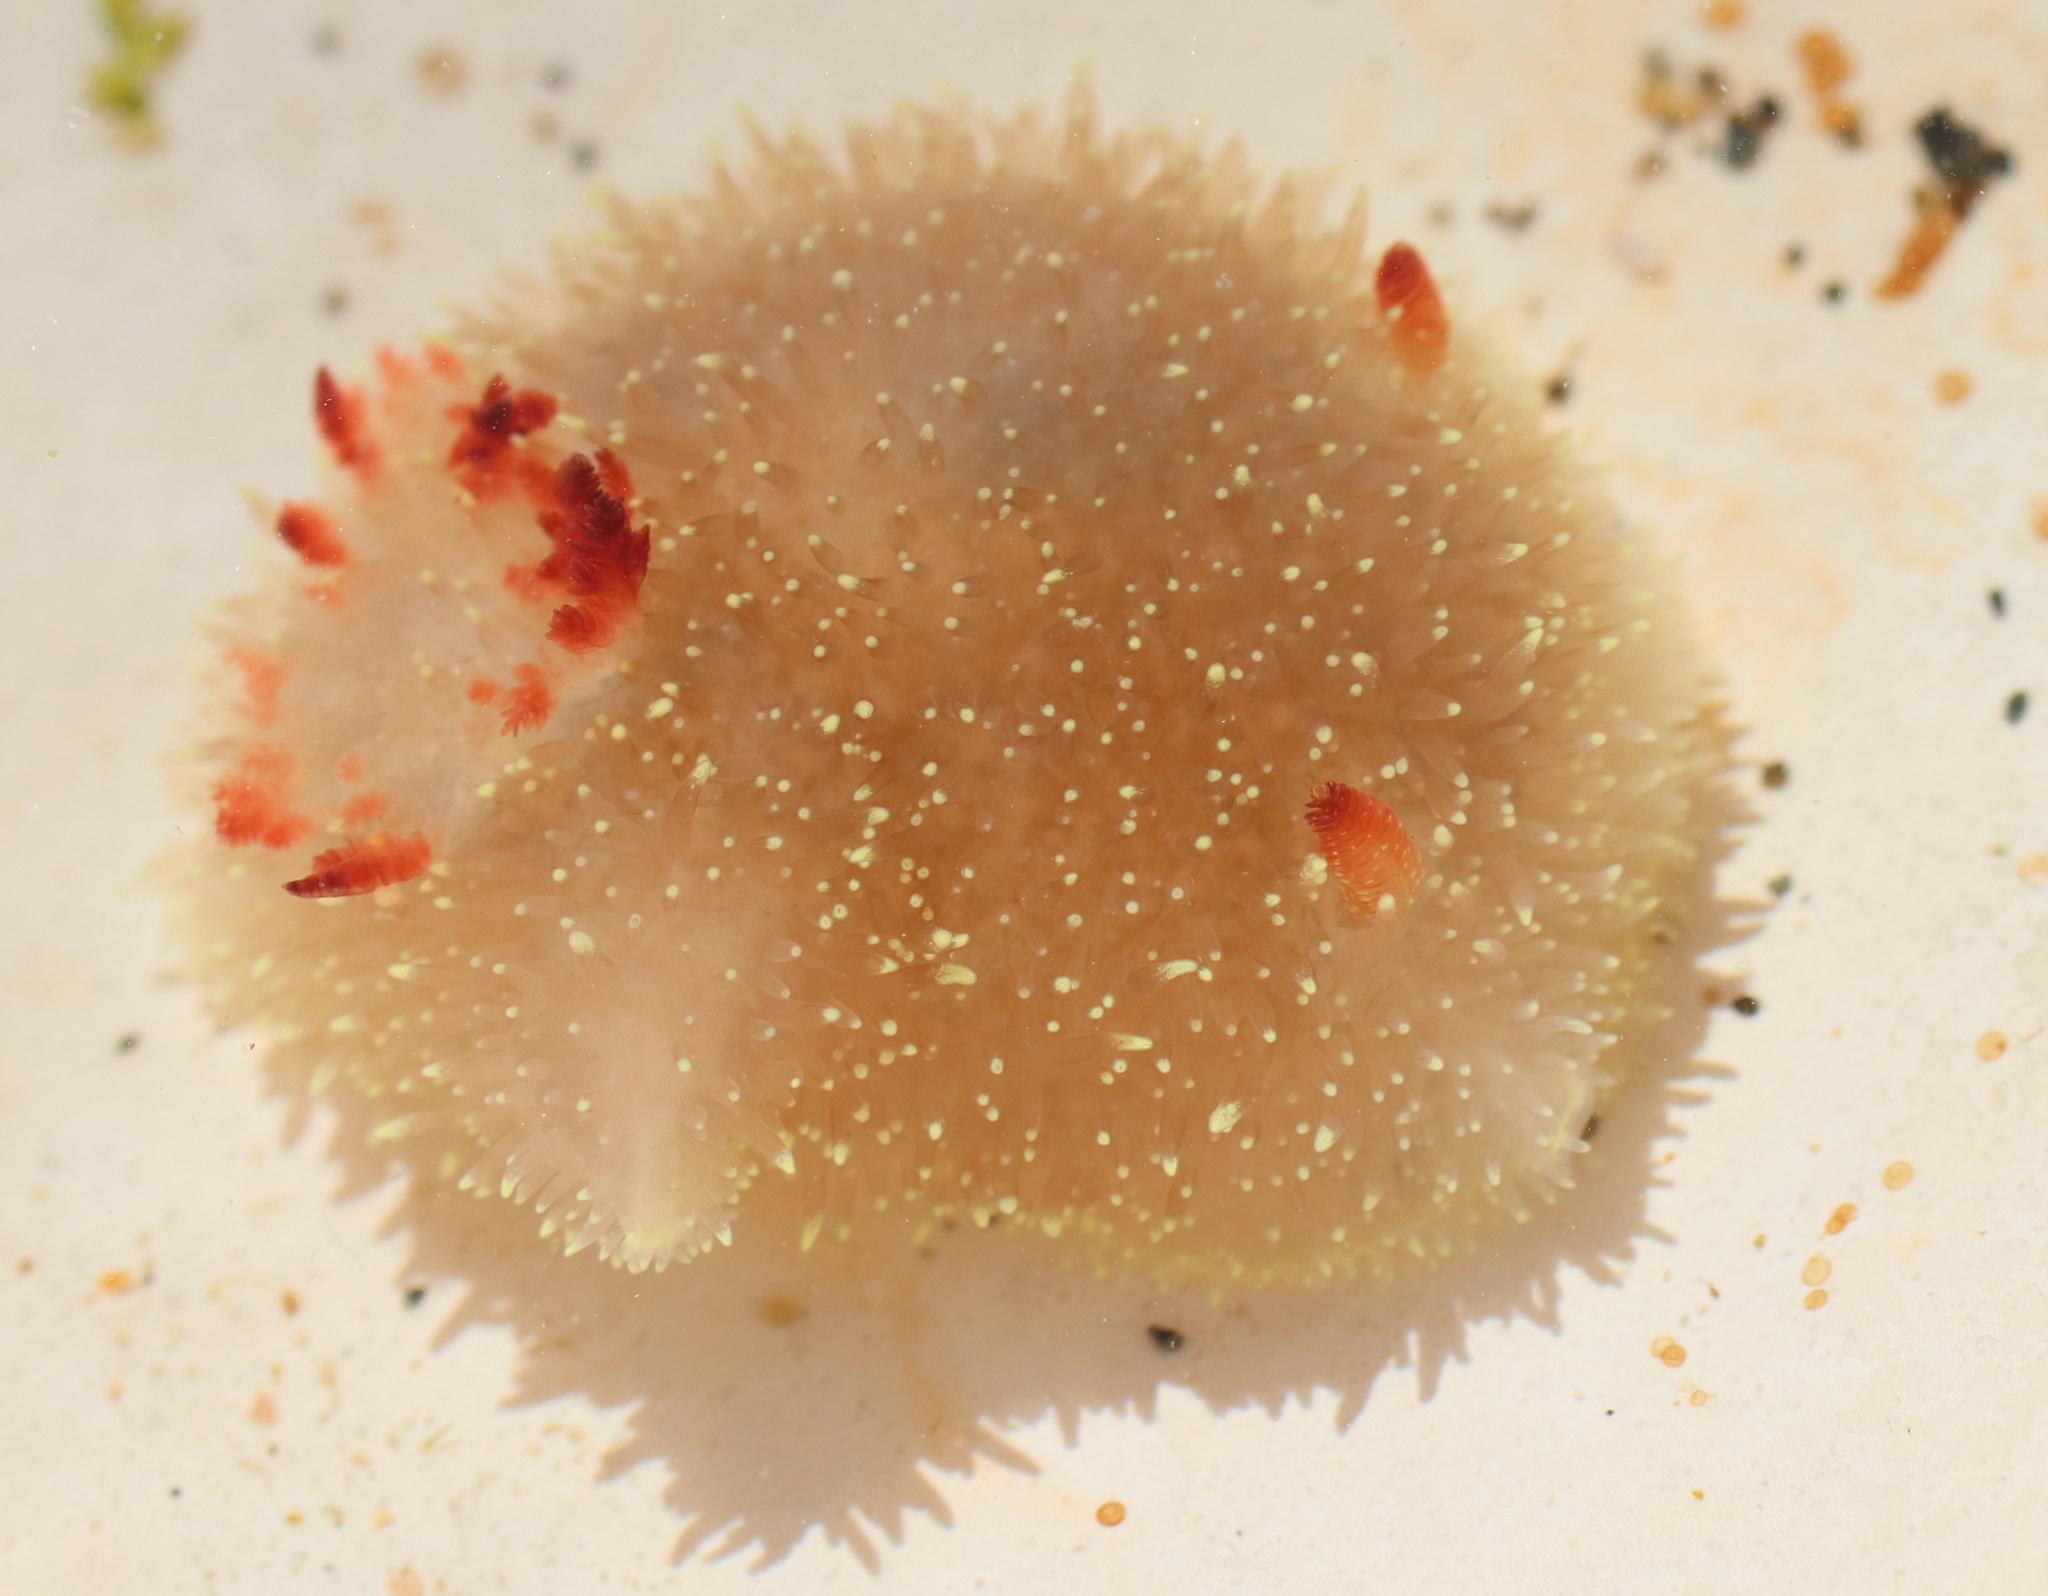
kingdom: Animalia
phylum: Mollusca
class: Gastropoda
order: Nudibranchia
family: Onchidorididae
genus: Acanthodoris
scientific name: Acanthodoris nanaimoensis
